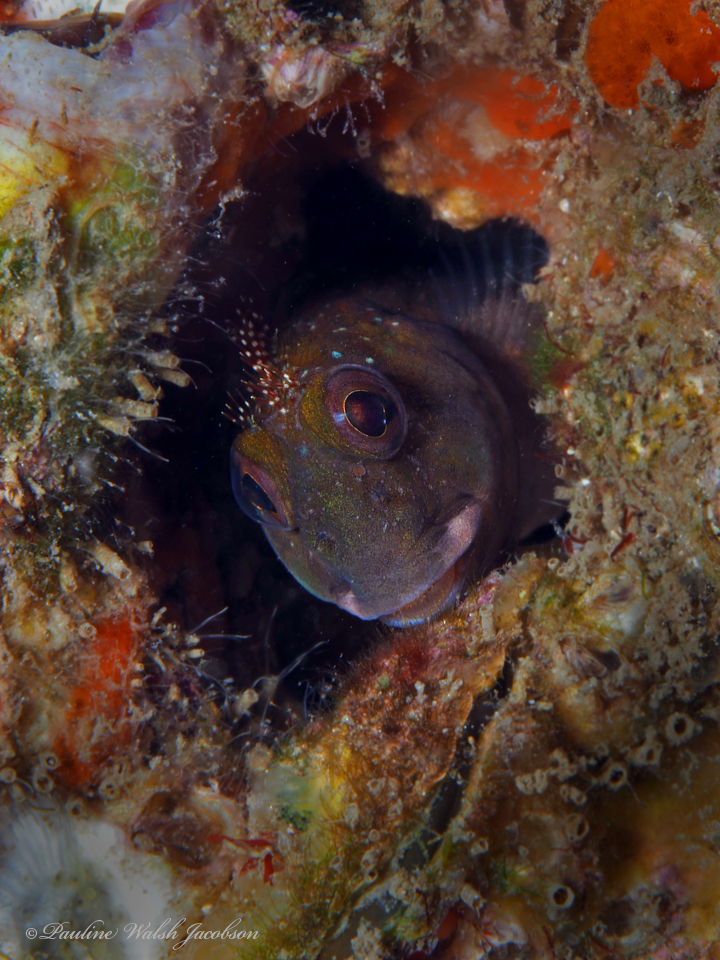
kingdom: Animalia
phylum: Chordata
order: Perciformes
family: Blenniidae
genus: Scartella
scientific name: Scartella cristata
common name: Molly miller
